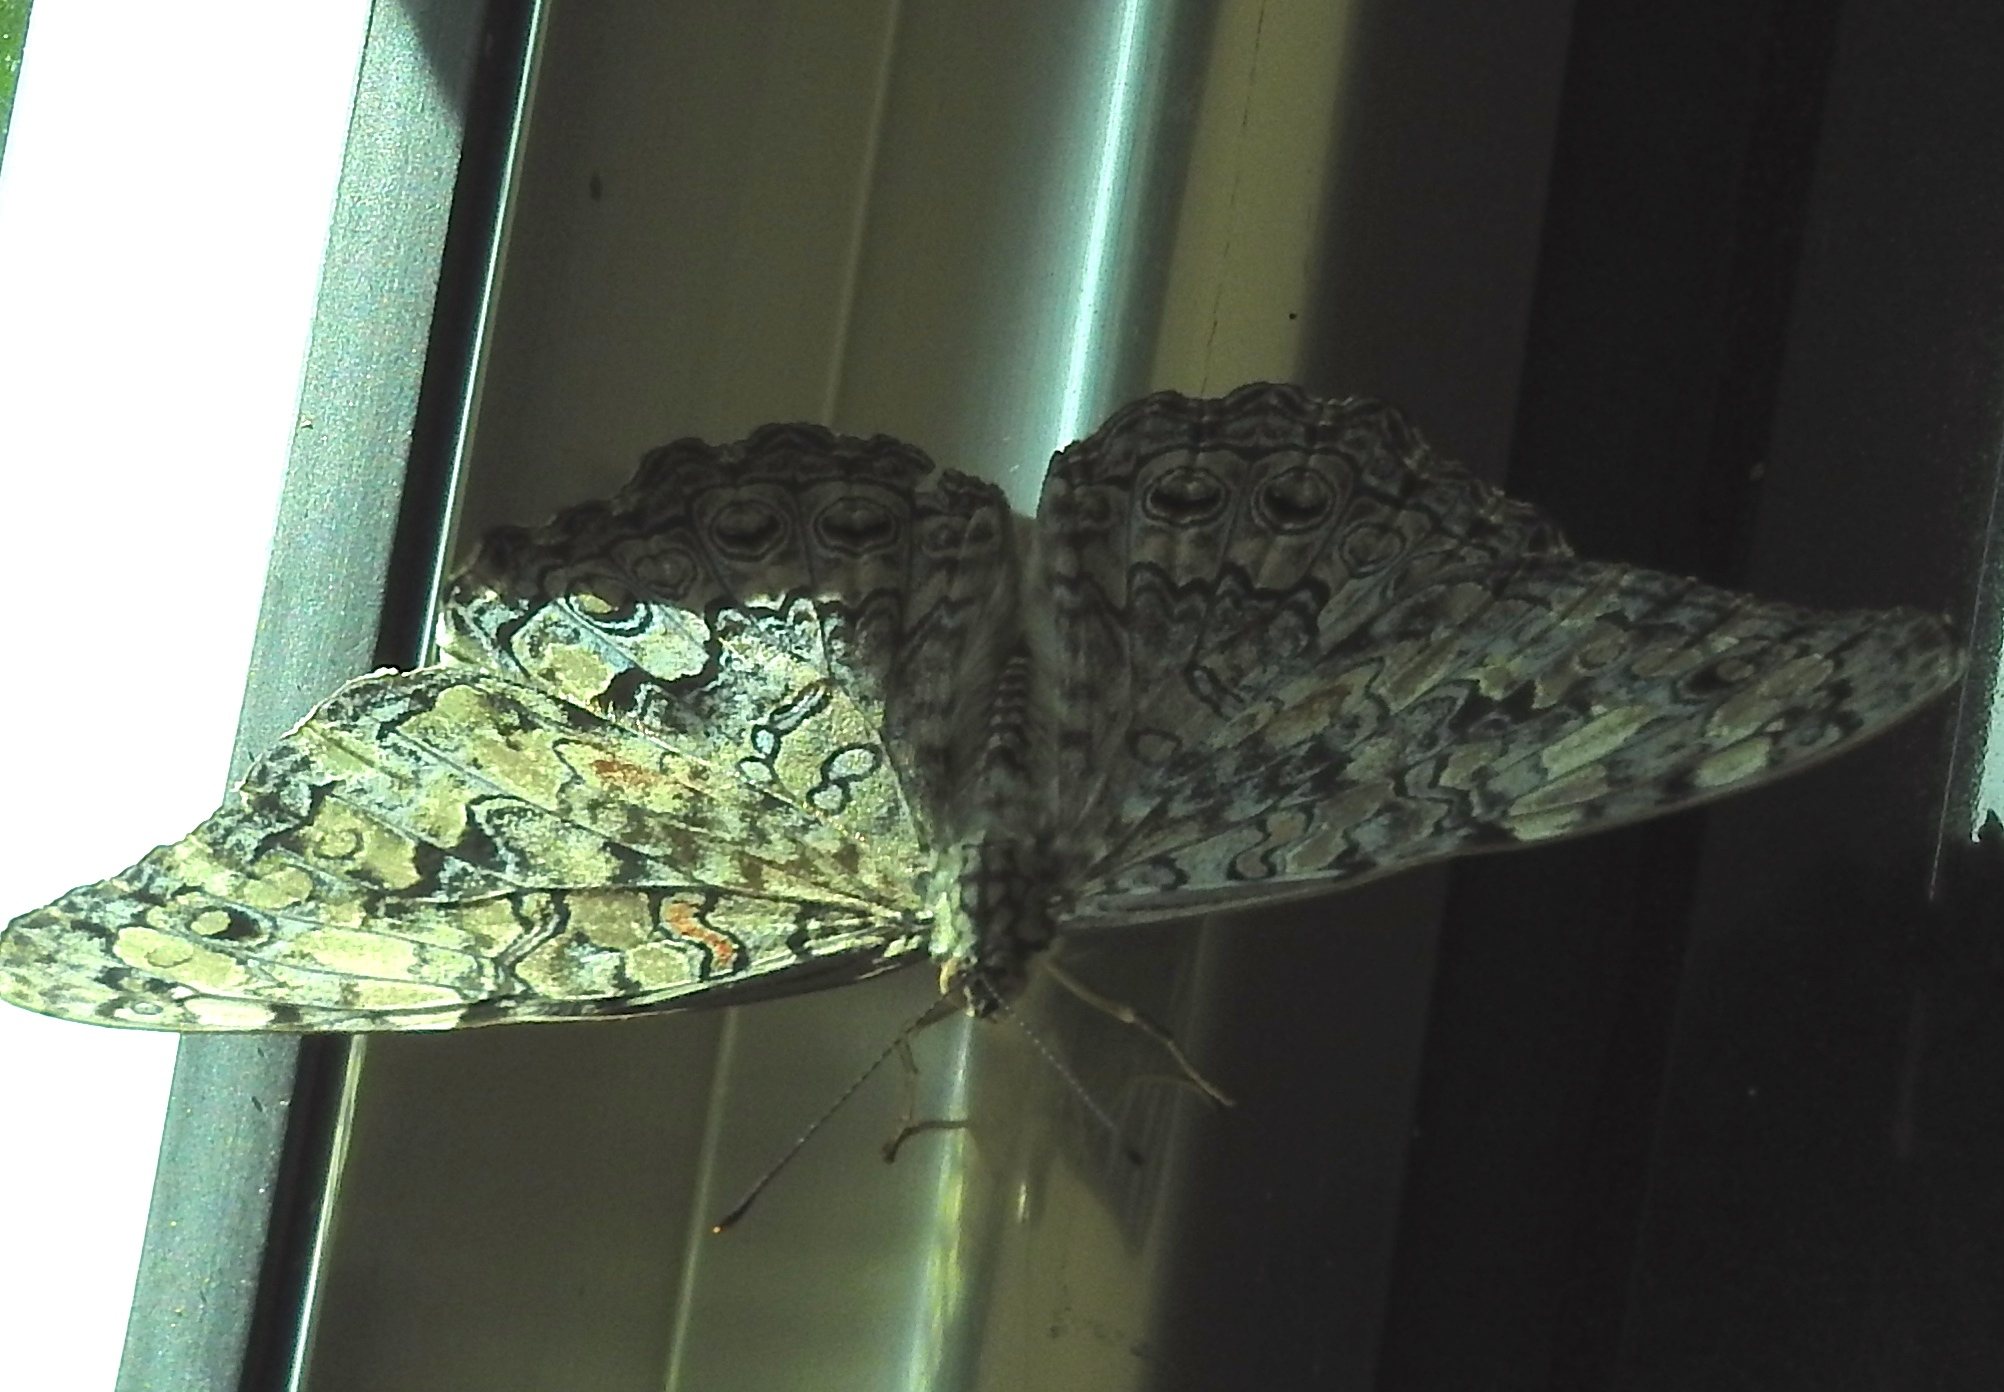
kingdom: Animalia
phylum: Arthropoda
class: Insecta
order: Lepidoptera
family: Nymphalidae
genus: Hamadryas
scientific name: Hamadryas februa
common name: Gray cracker
